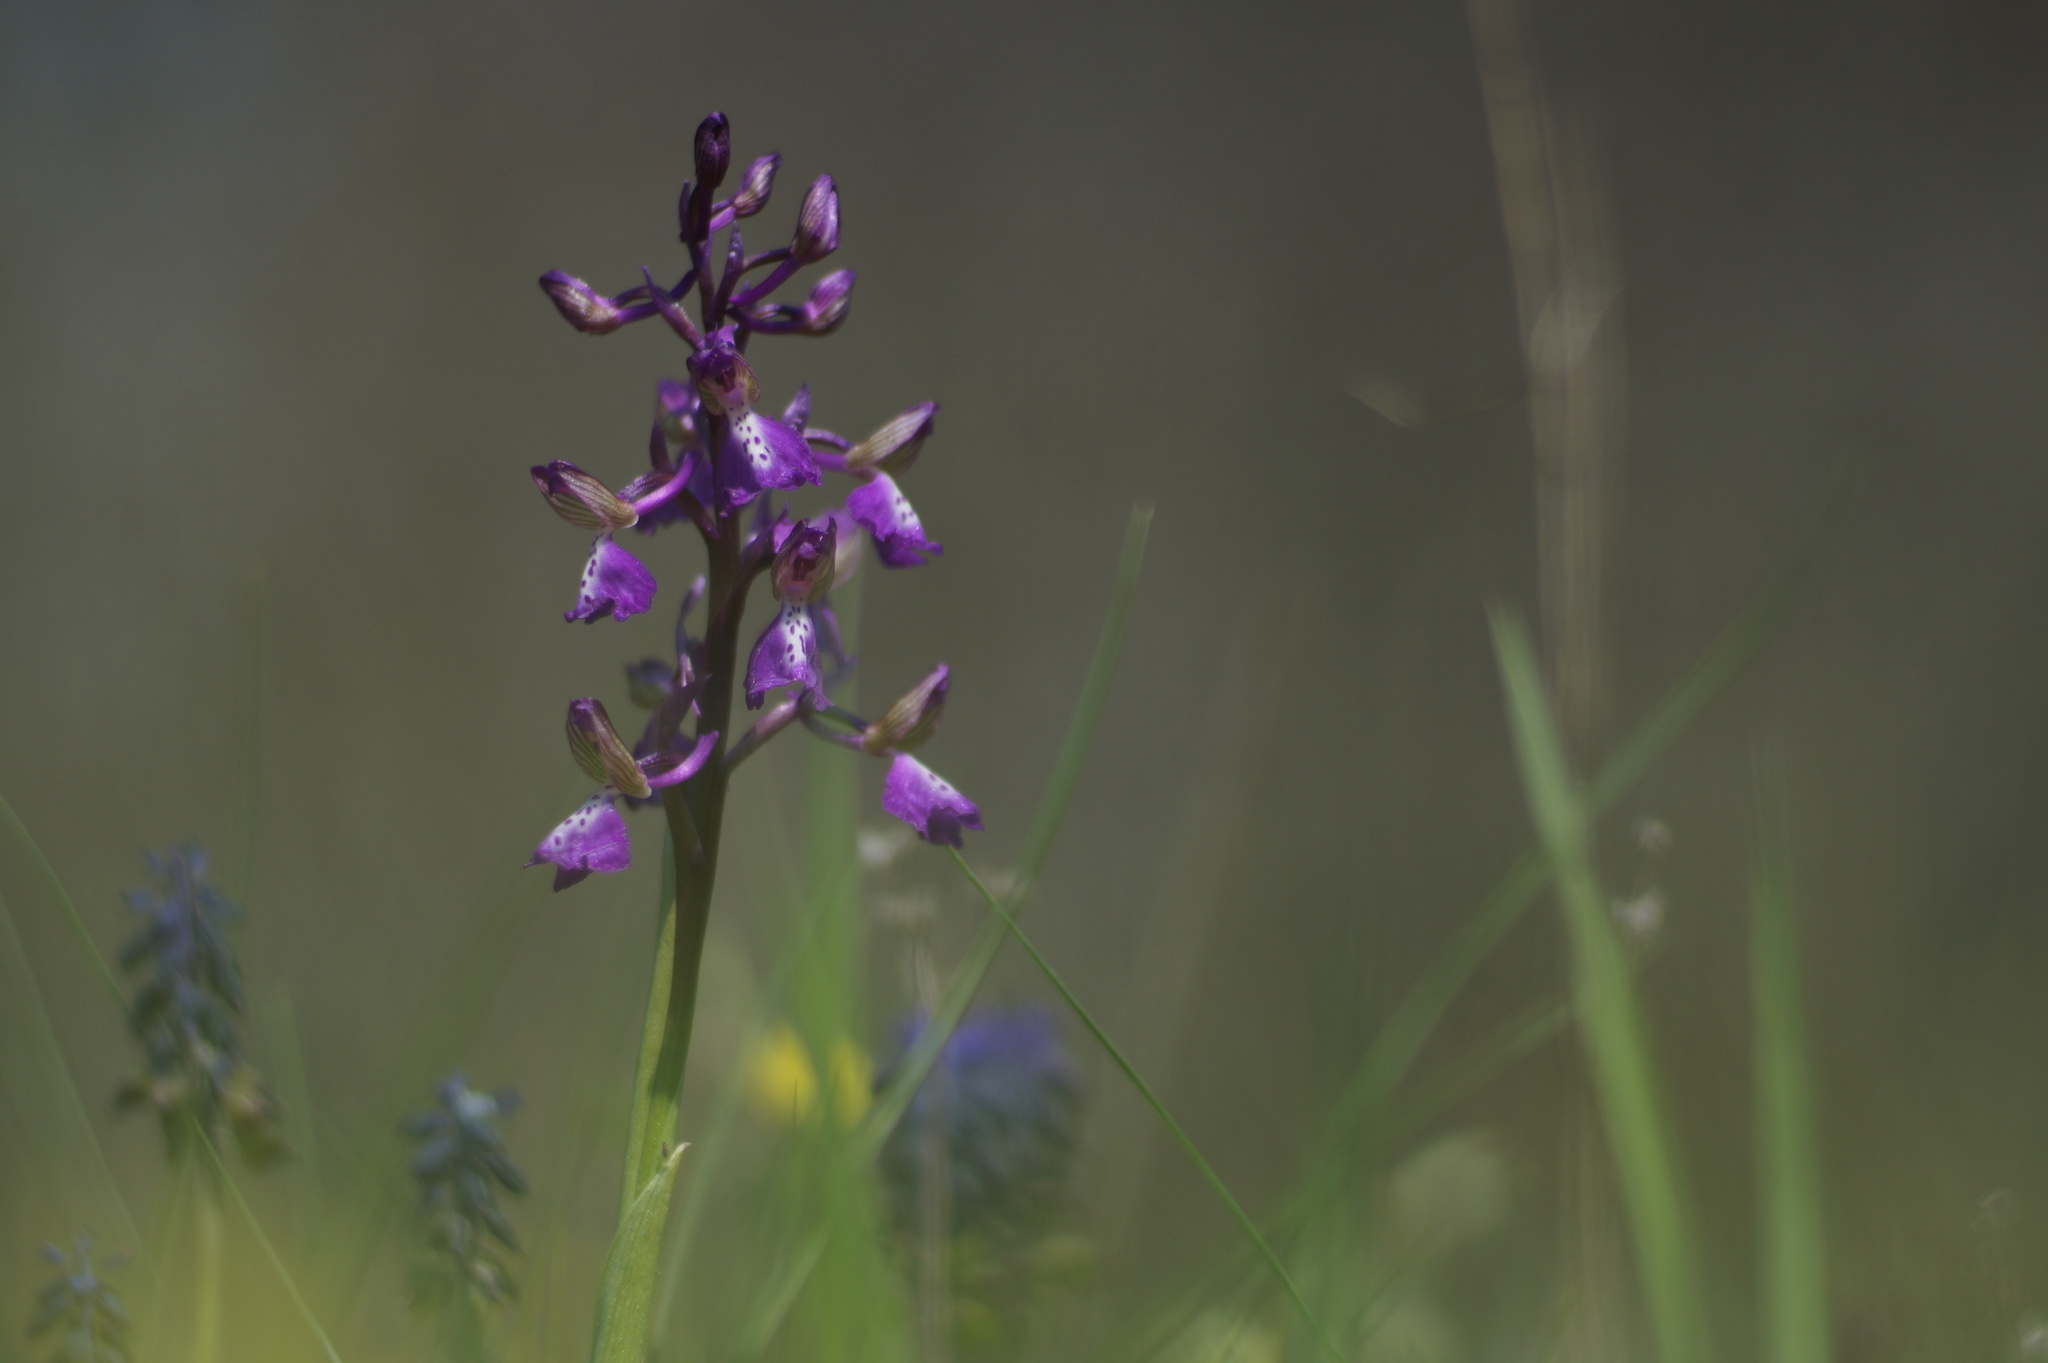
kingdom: Plantae
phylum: Tracheophyta
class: Liliopsida
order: Asparagales
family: Orchidaceae
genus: Anacamptis
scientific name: Anacamptis morio
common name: Green-winged orchid
